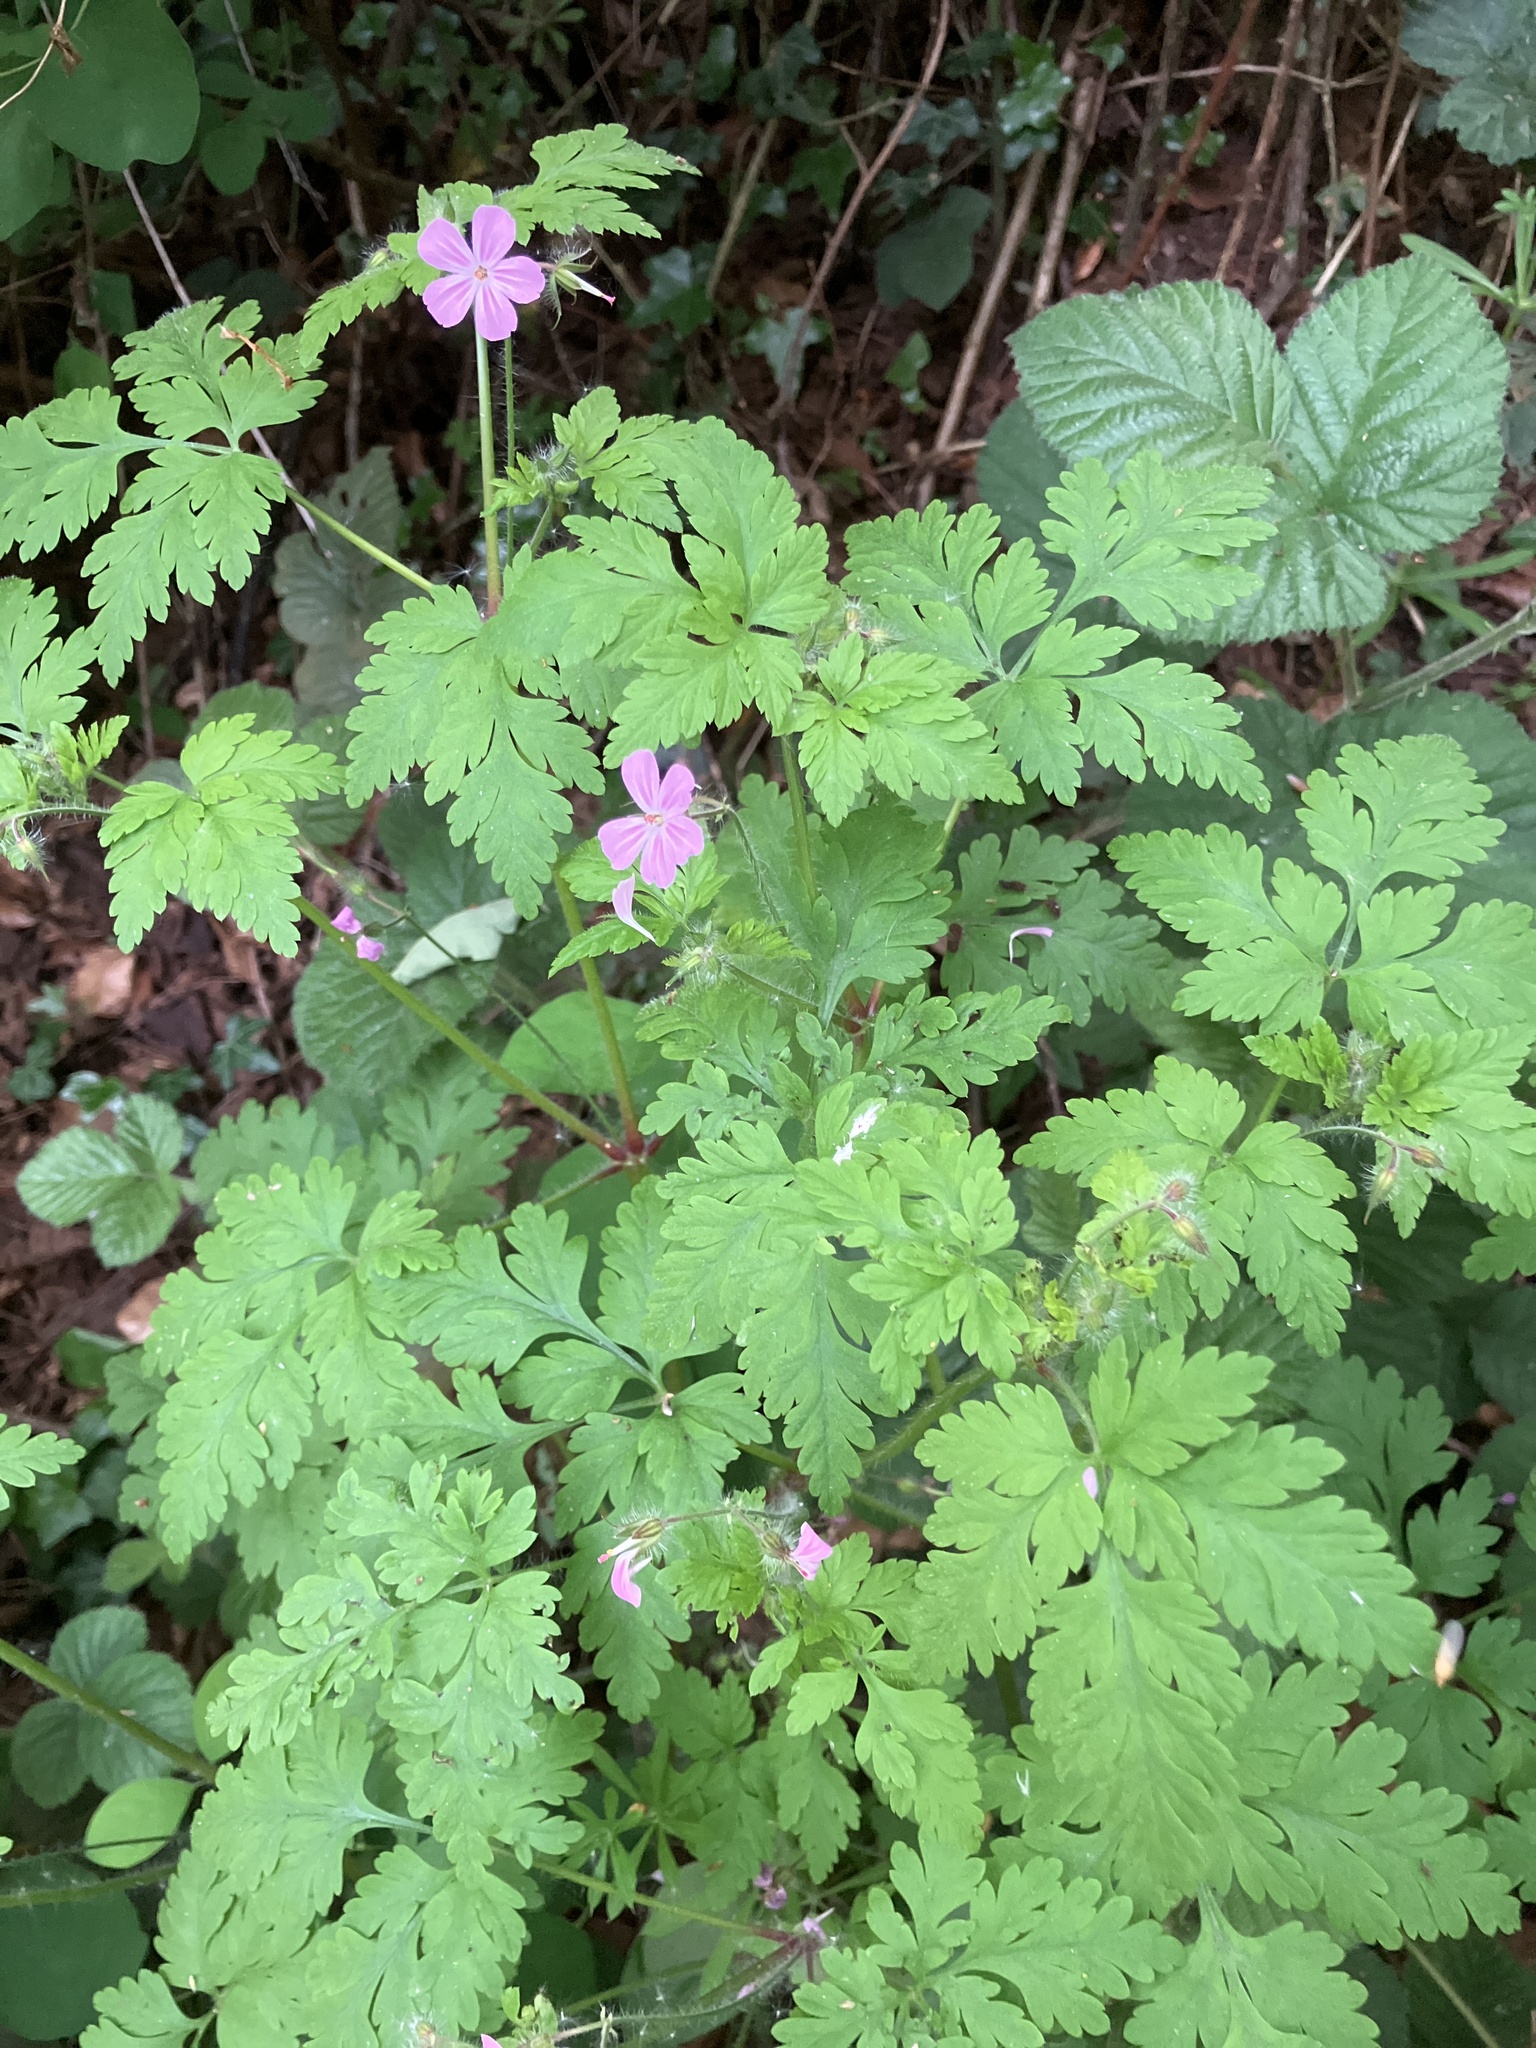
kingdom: Plantae
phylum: Tracheophyta
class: Magnoliopsida
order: Geraniales
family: Geraniaceae
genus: Geranium
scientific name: Geranium robertianum
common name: Herb-robert
